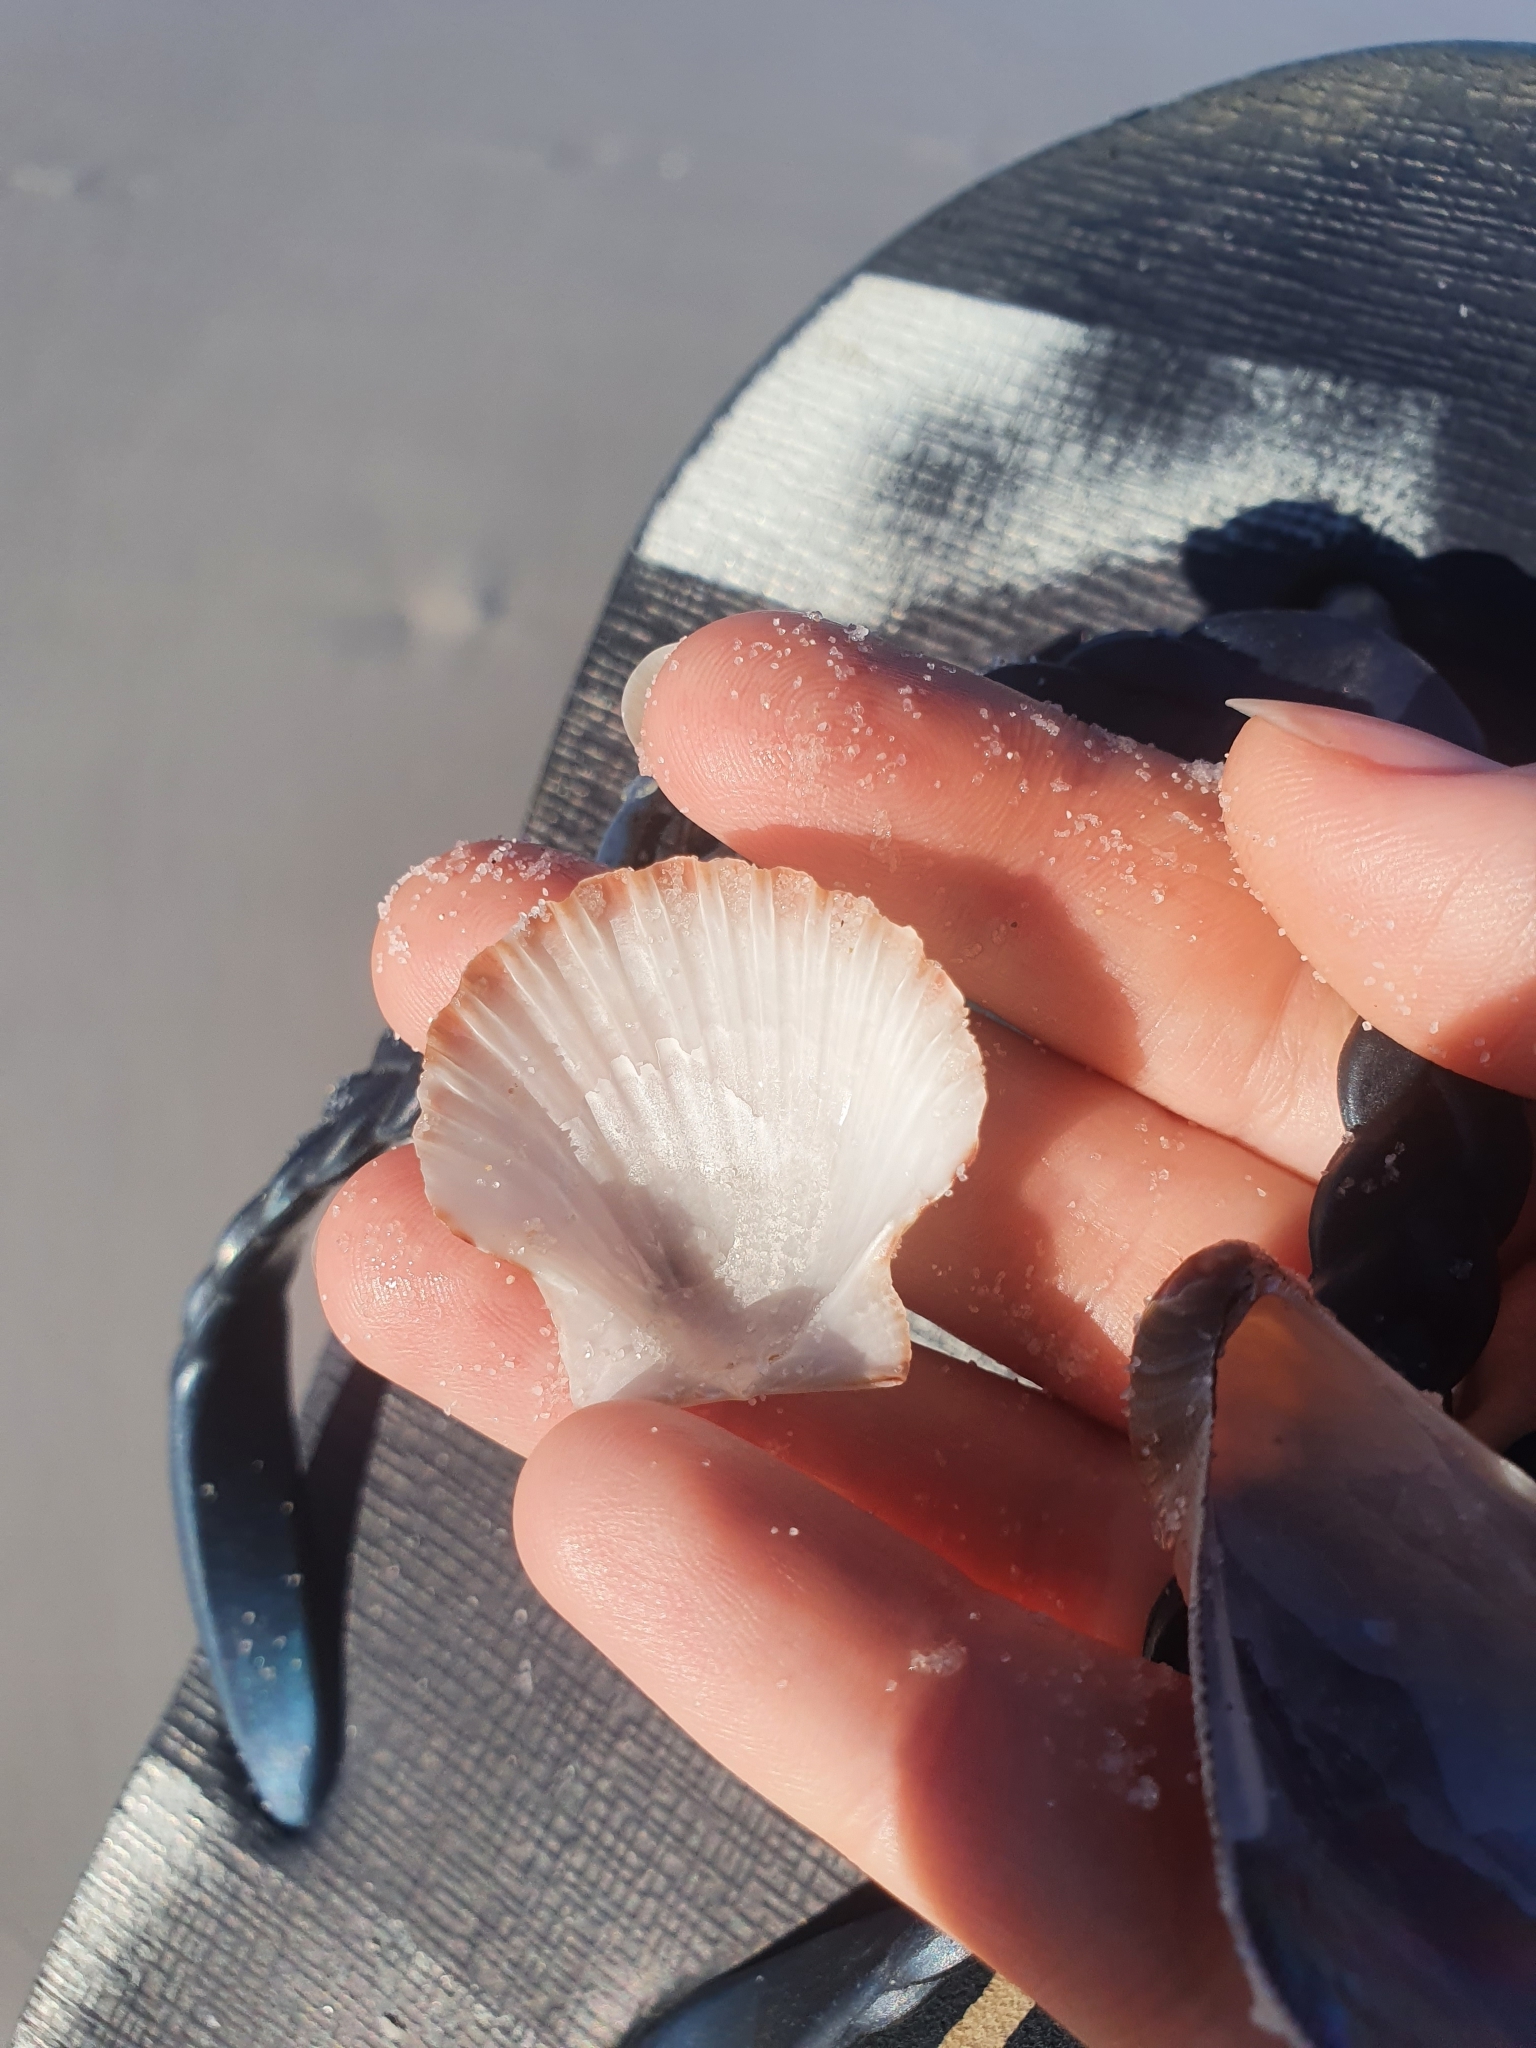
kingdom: Animalia
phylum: Mollusca
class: Bivalvia
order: Pectinida
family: Pectinidae
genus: Pecten
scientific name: Pecten fumatus
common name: Australian scallop
